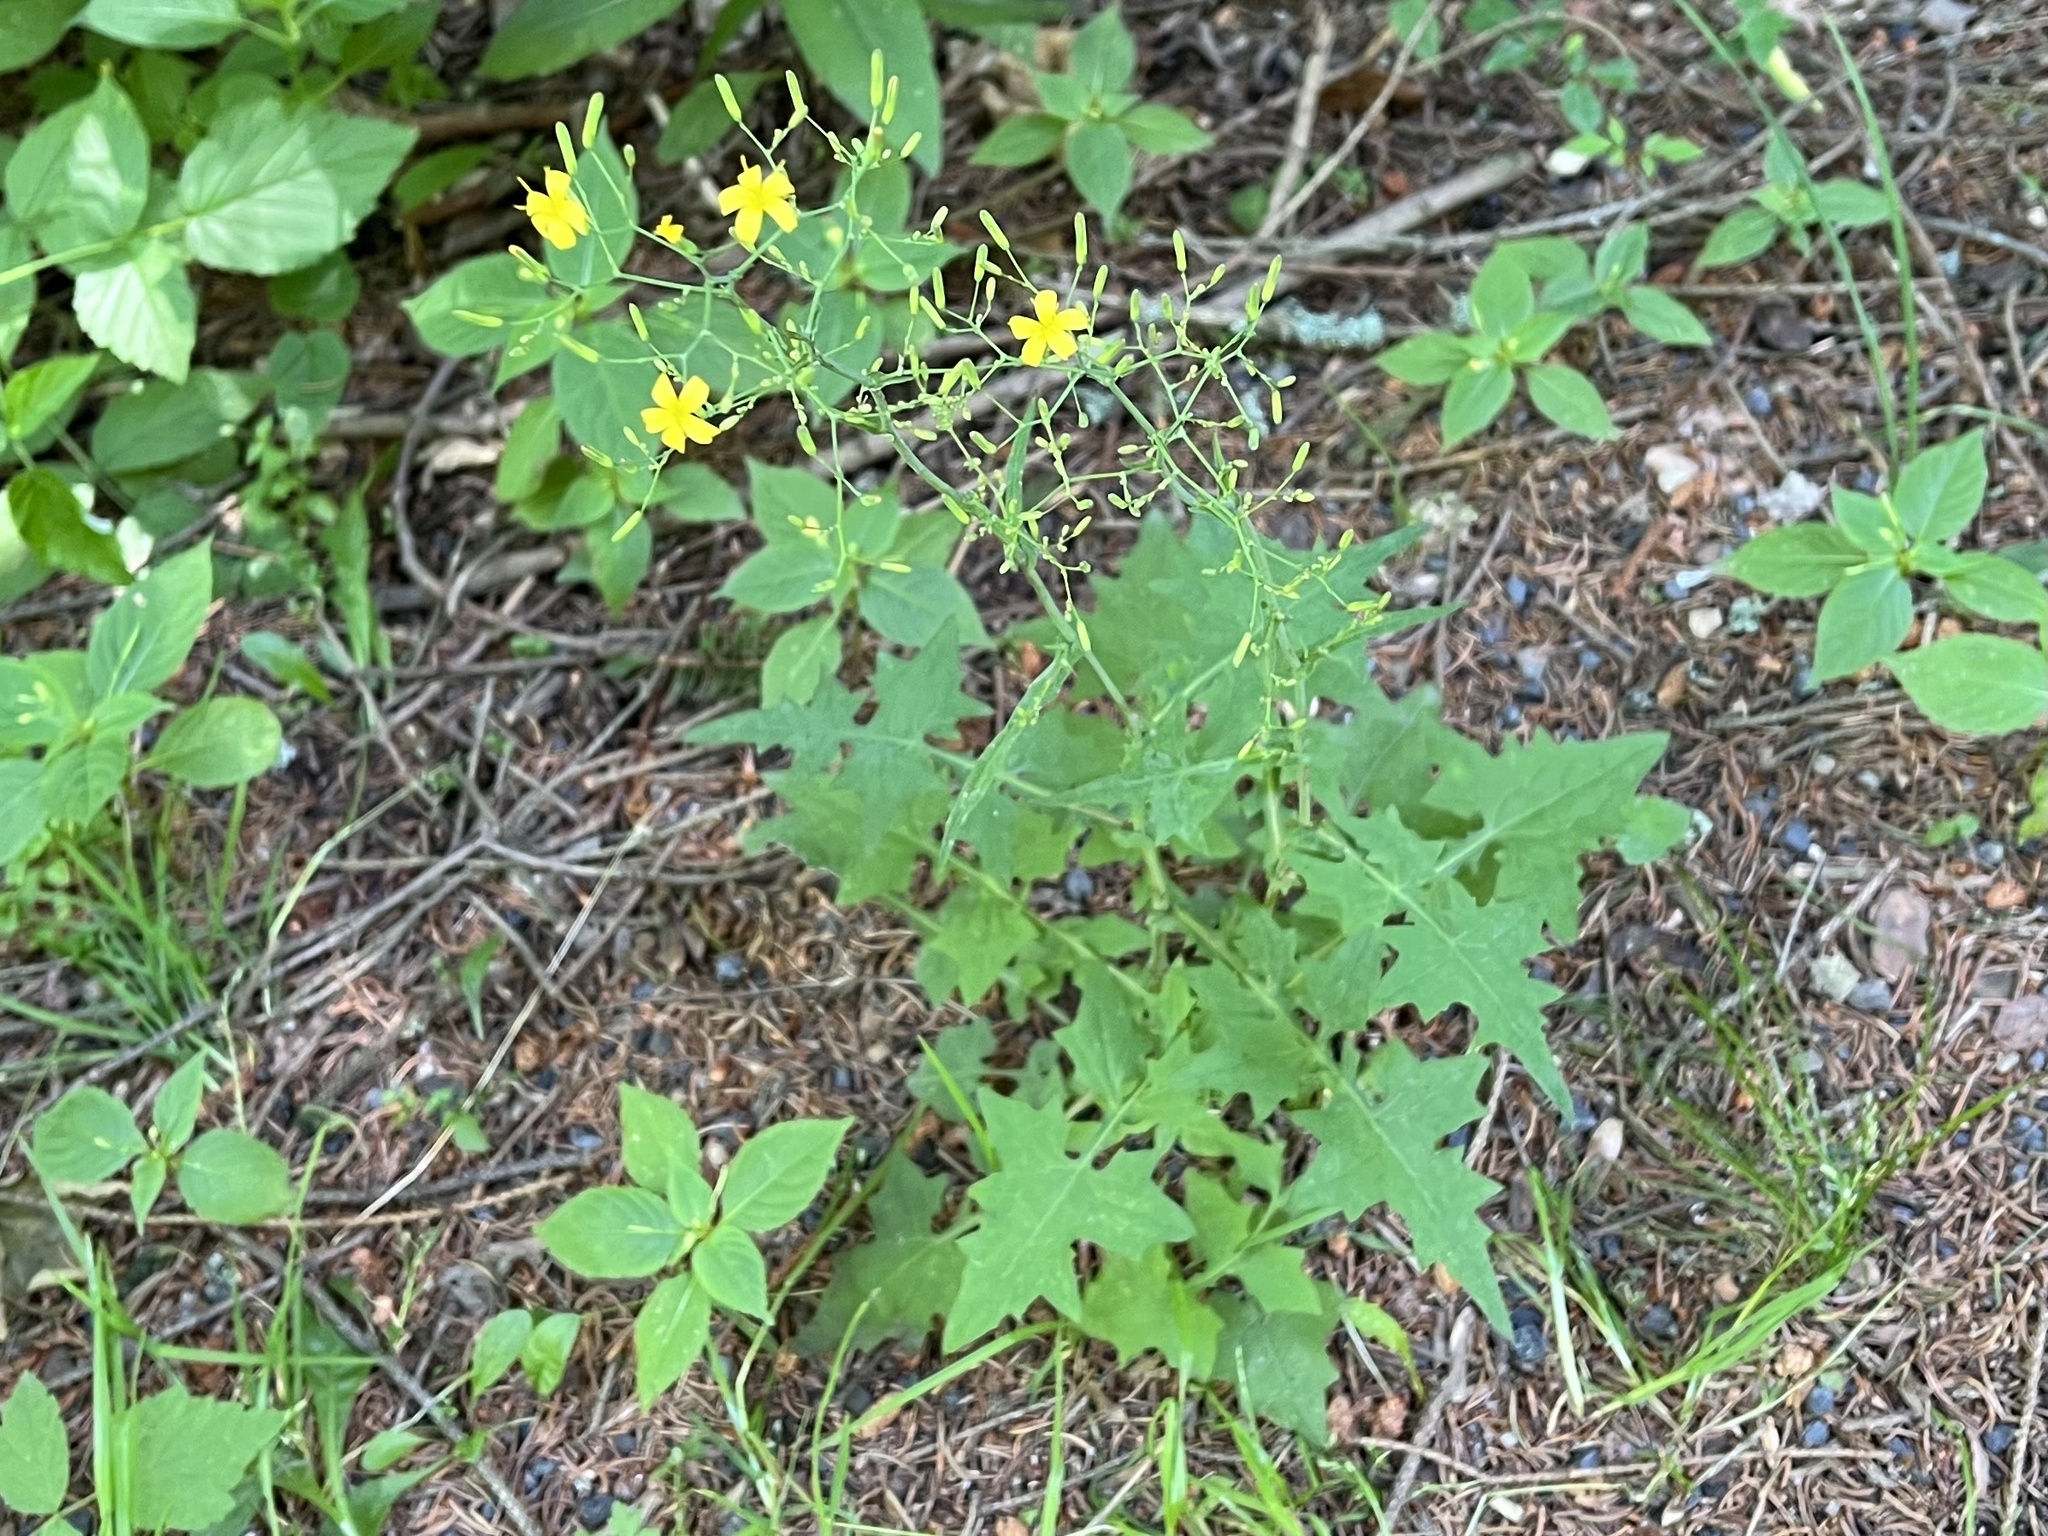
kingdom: Plantae
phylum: Tracheophyta
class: Magnoliopsida
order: Asterales
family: Asteraceae
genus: Mycelis
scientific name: Mycelis muralis
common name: Wall lettuce
